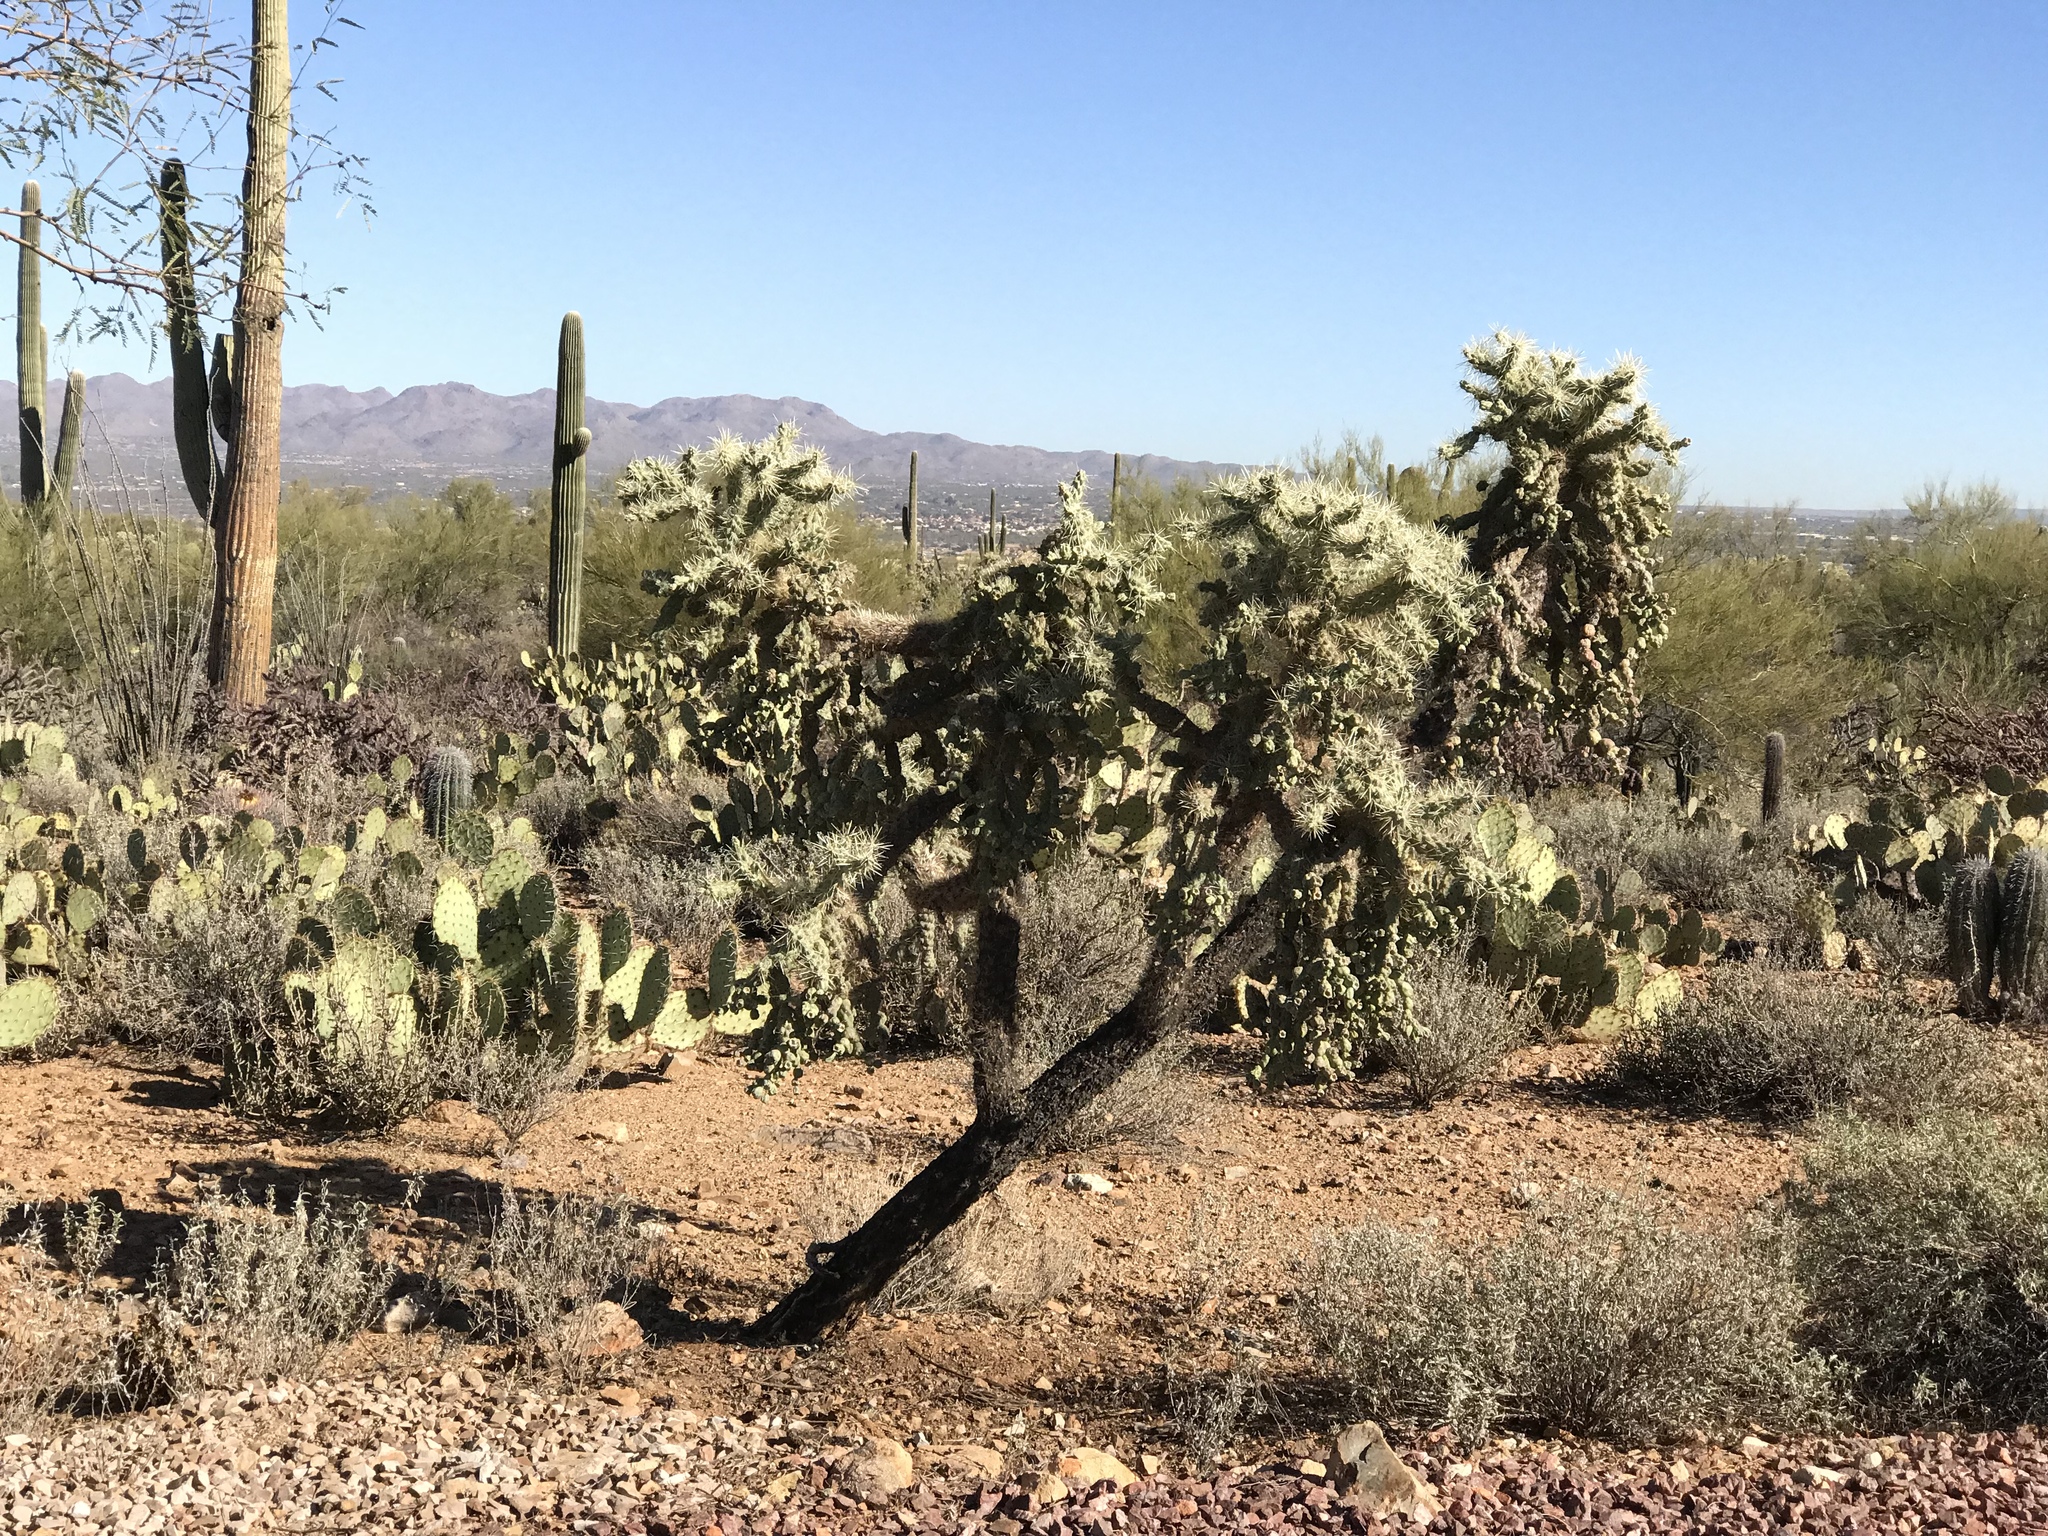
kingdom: Plantae
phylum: Tracheophyta
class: Magnoliopsida
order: Caryophyllales
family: Cactaceae
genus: Cylindropuntia
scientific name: Cylindropuntia fulgida
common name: Jumping cholla
